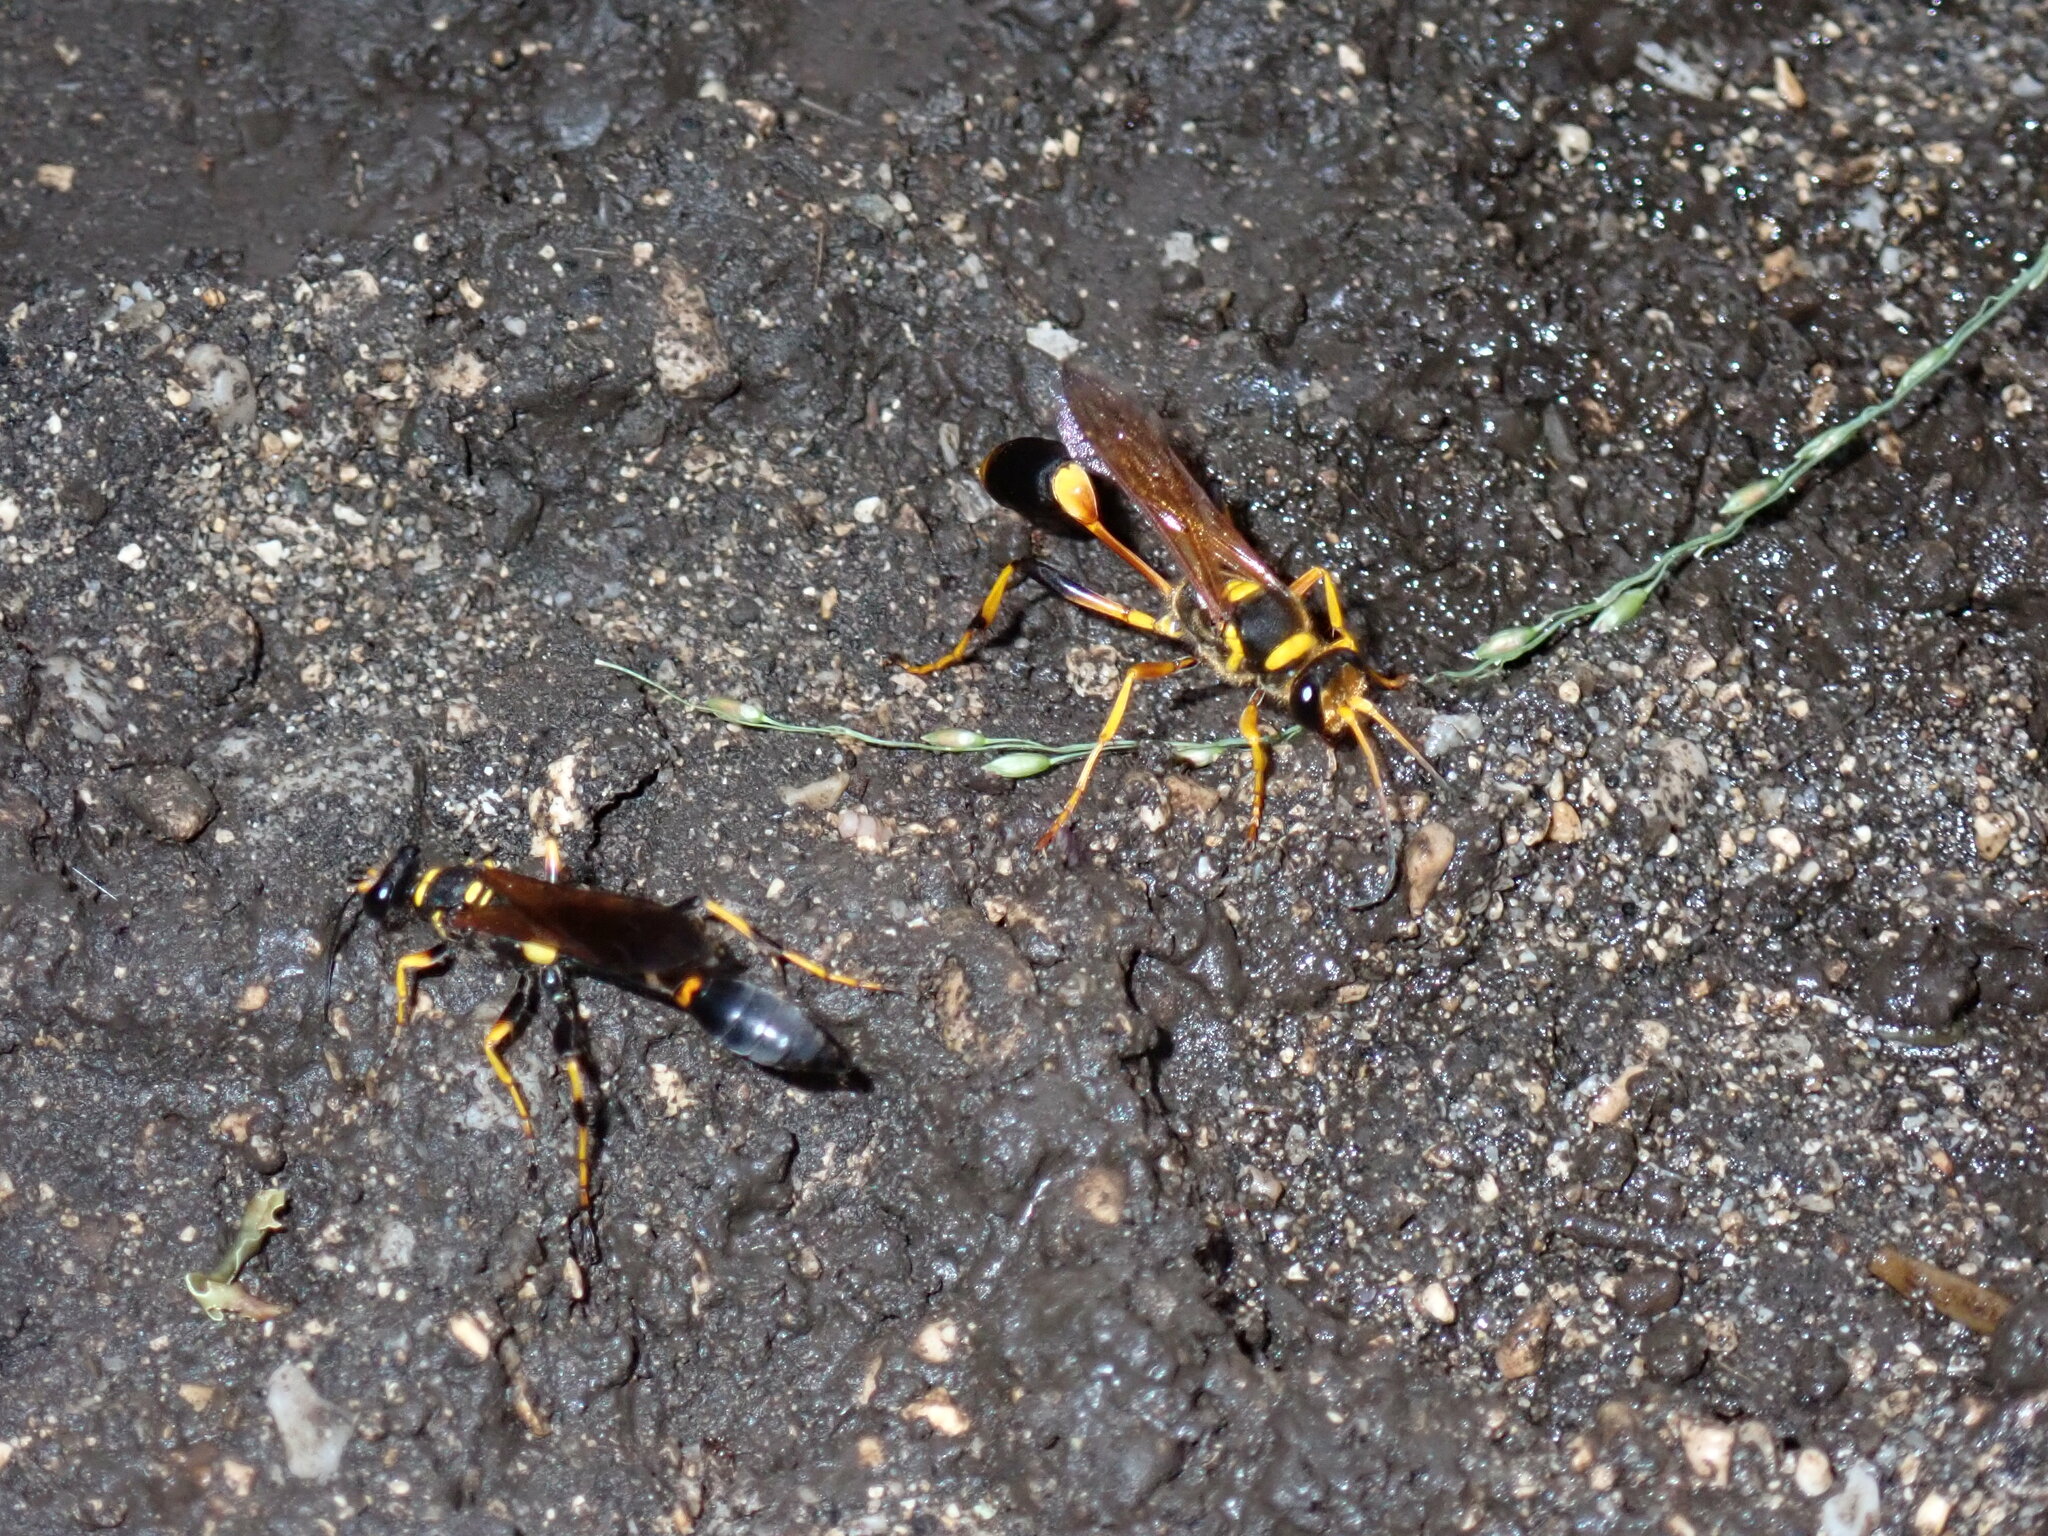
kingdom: Animalia
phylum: Arthropoda
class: Insecta
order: Hymenoptera
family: Sphecidae
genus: Sceliphron
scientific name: Sceliphron caementarium
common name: Mud dauber
